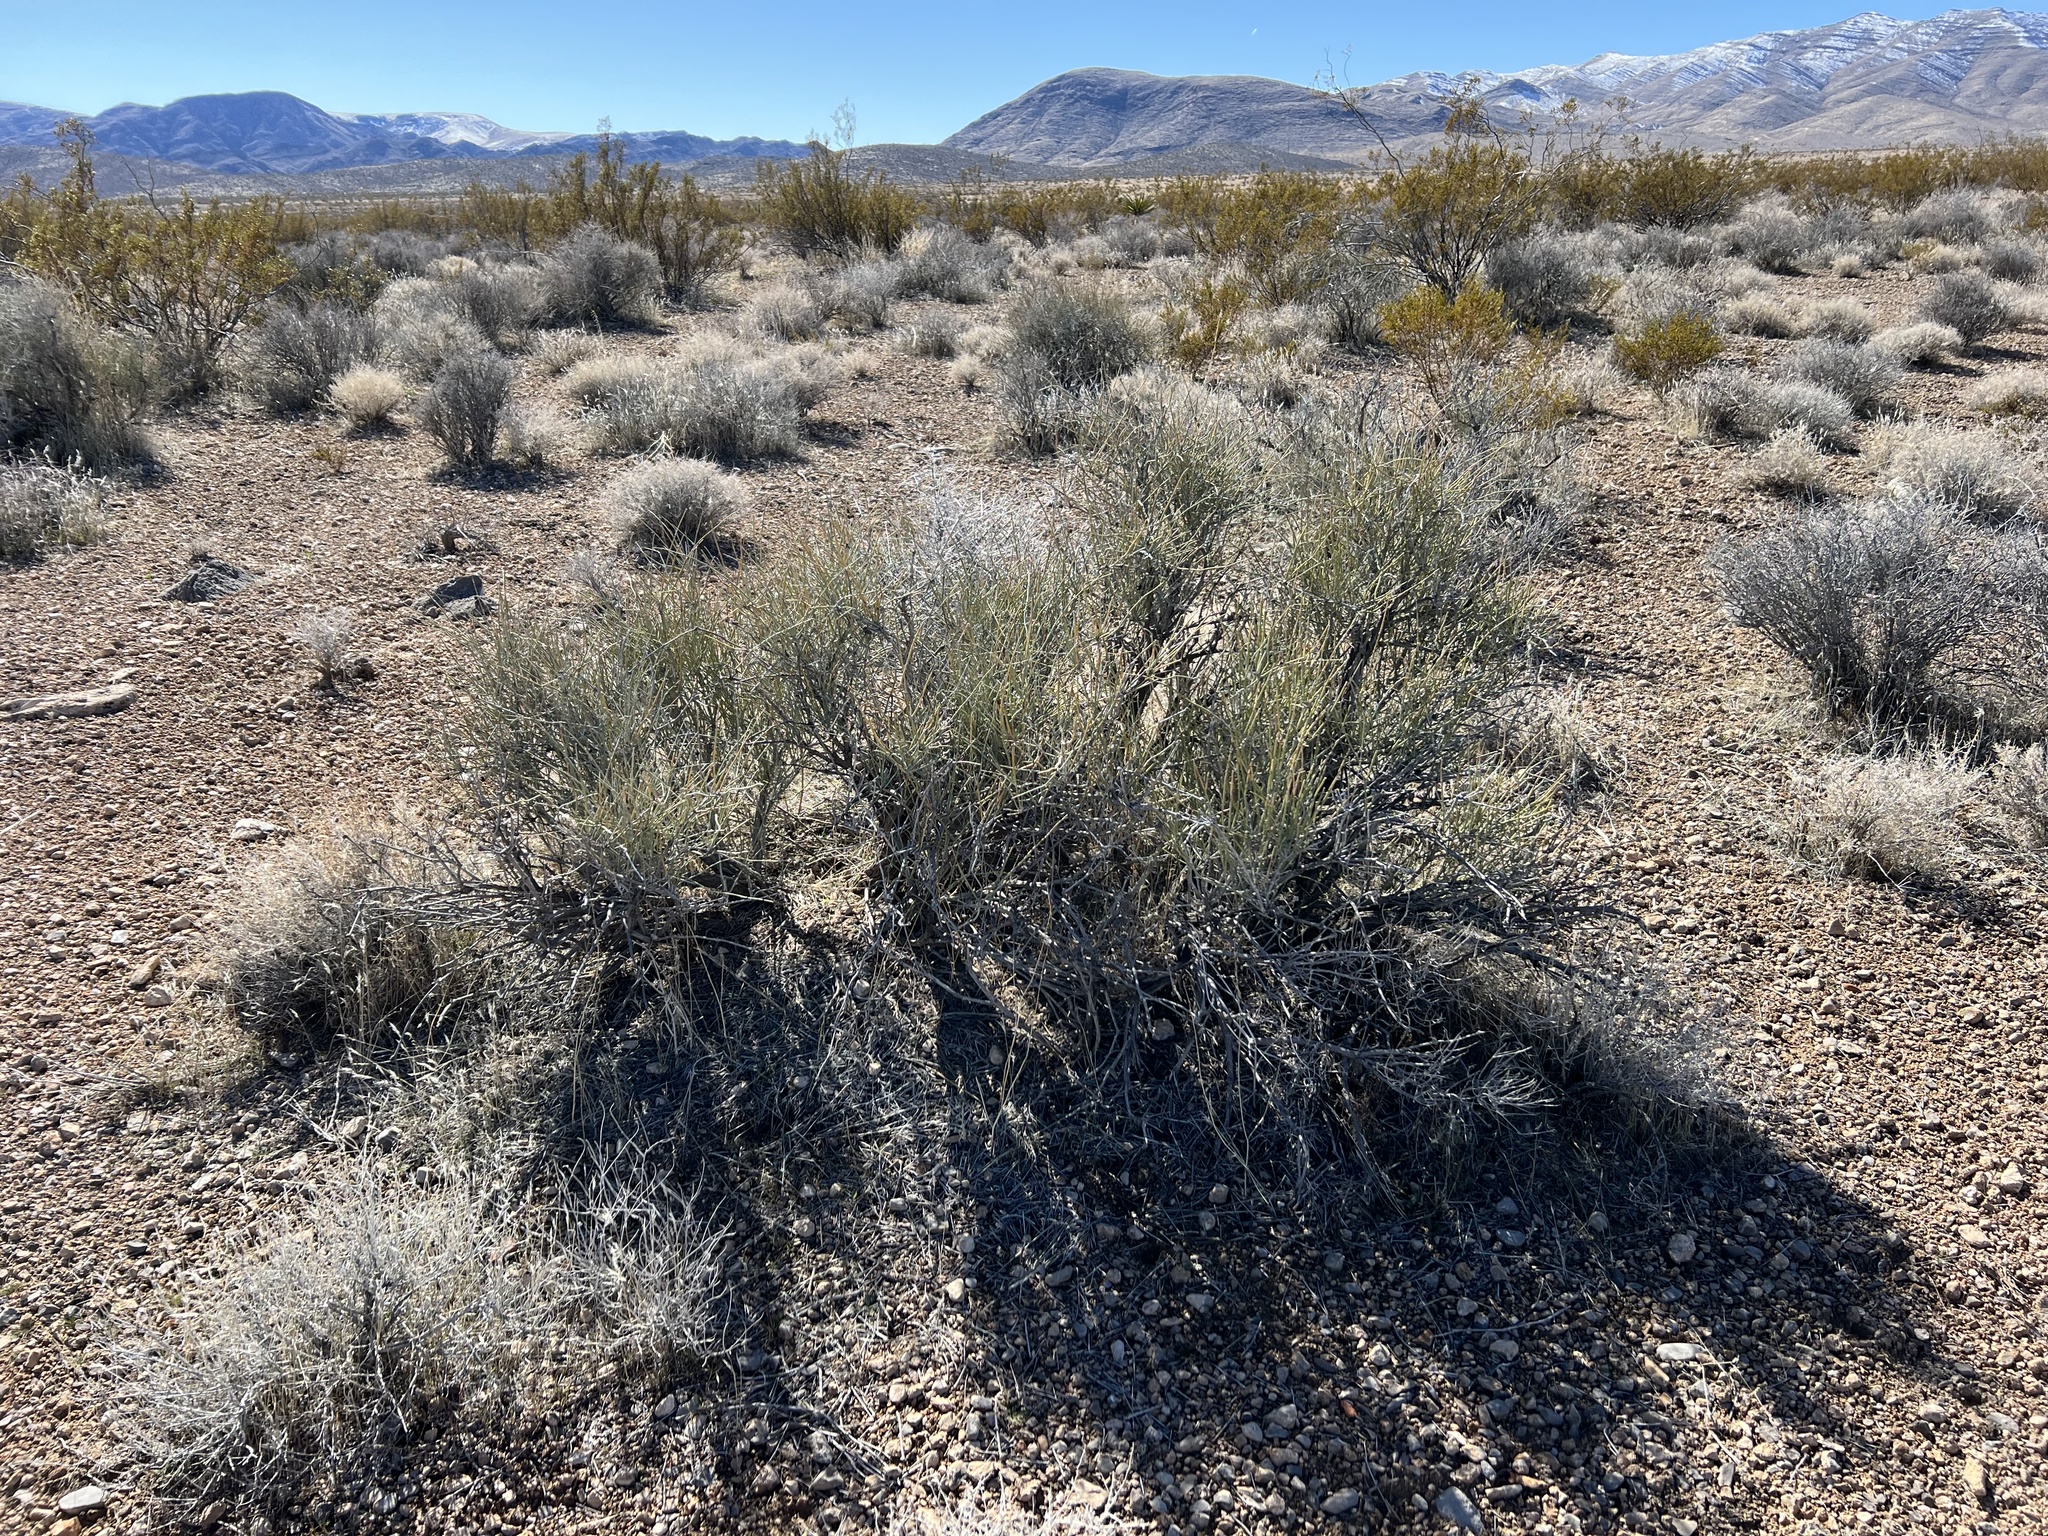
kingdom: Plantae
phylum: Tracheophyta
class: Gnetopsida
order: Ephedrales
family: Ephedraceae
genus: Ephedra
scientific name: Ephedra nevadensis
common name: Gray ephedra
